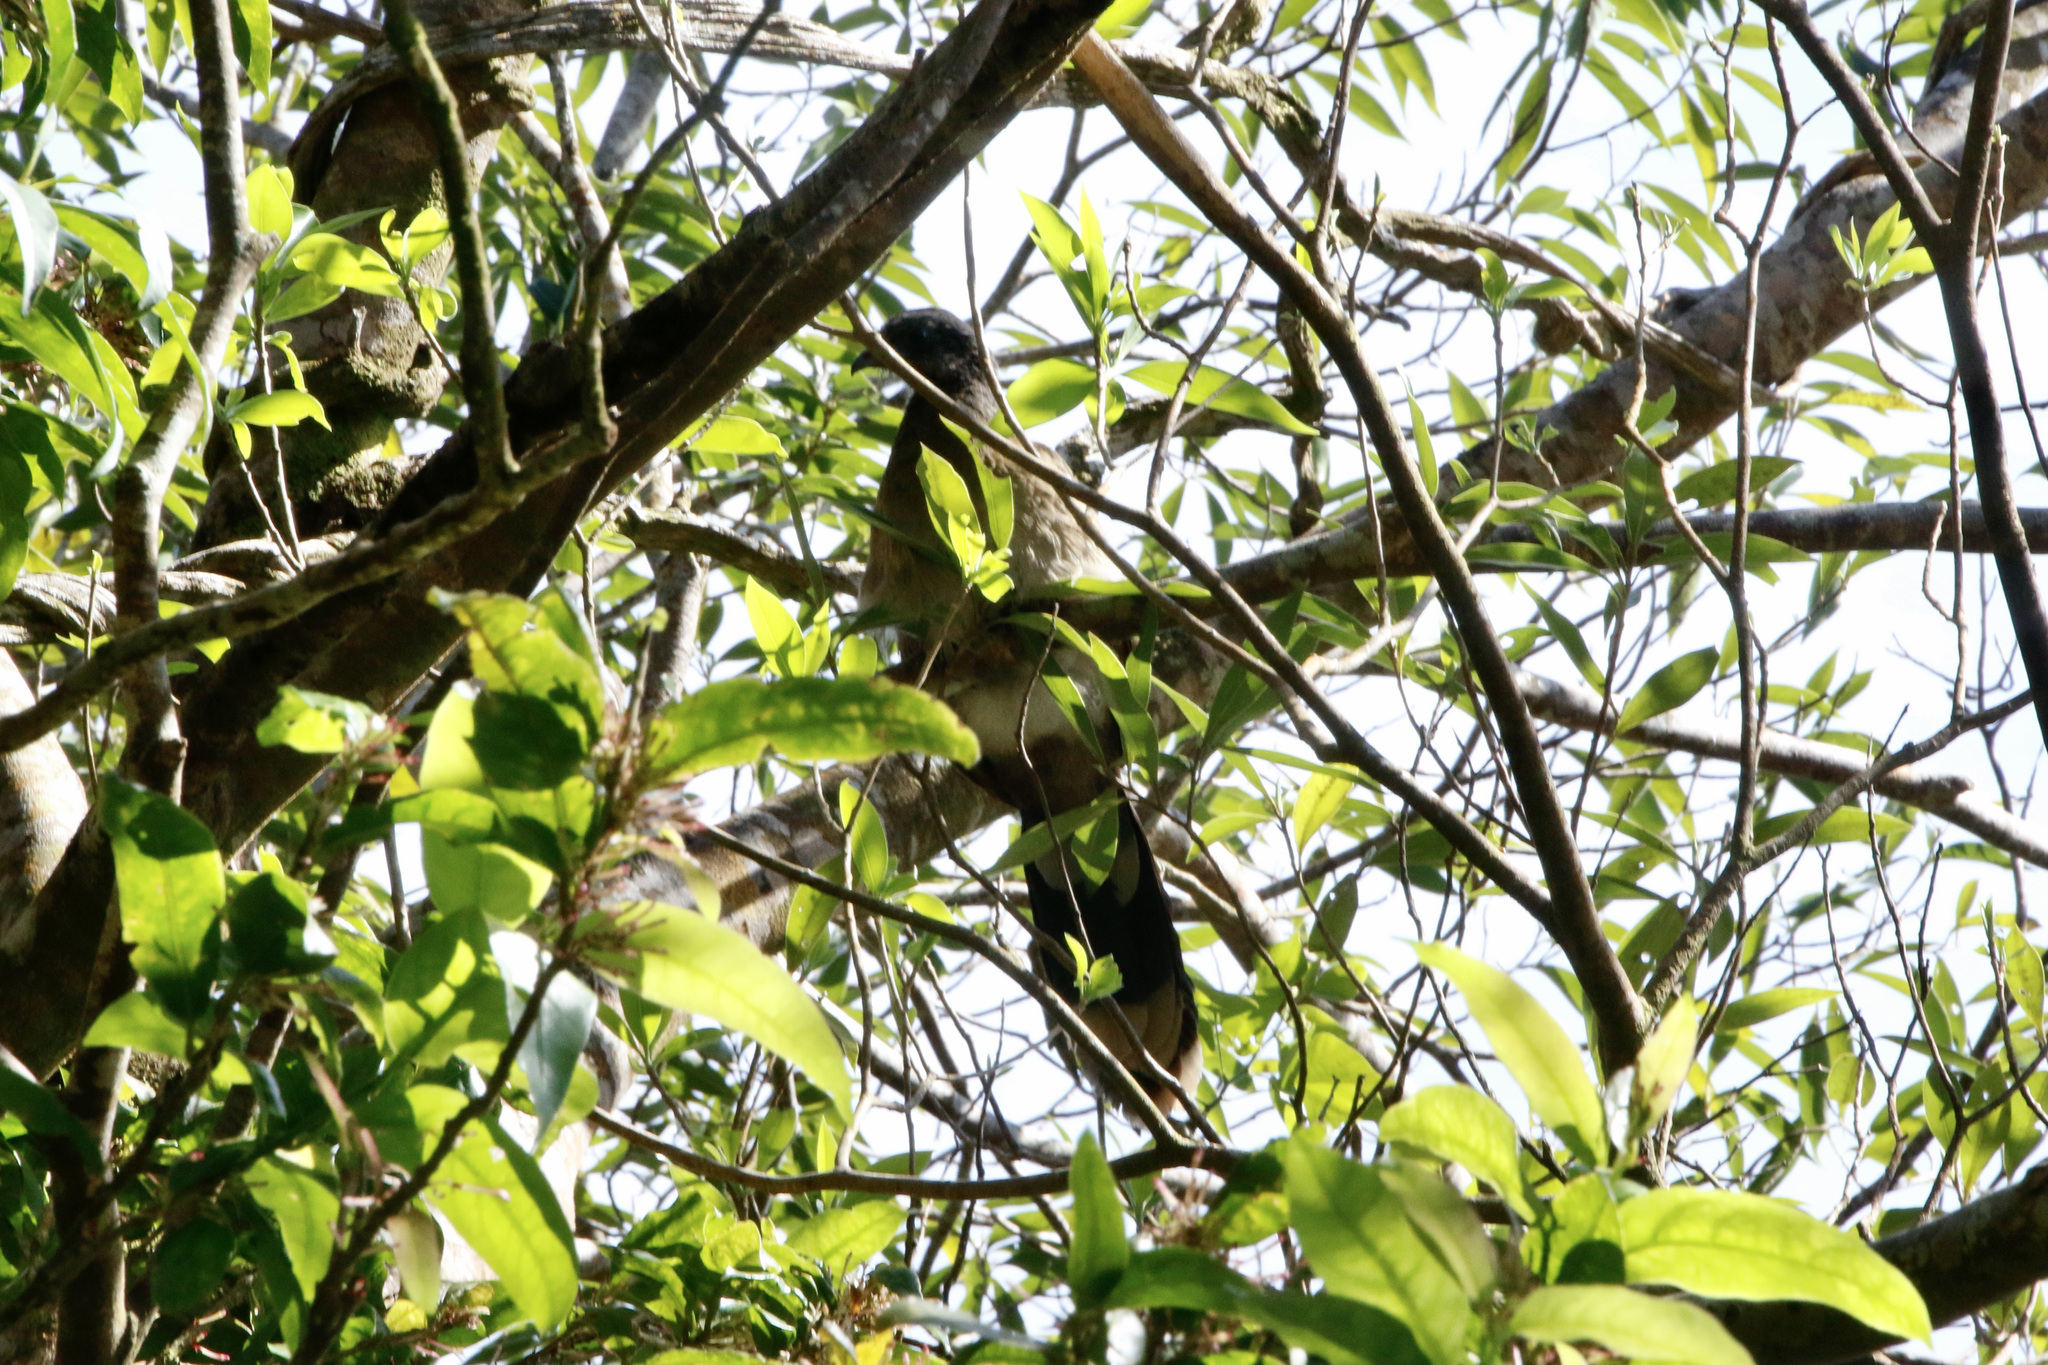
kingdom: Animalia
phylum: Chordata
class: Aves
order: Galliformes
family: Cracidae
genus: Ortalis
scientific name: Ortalis cinereiceps
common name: Grey-headed chachalaca
